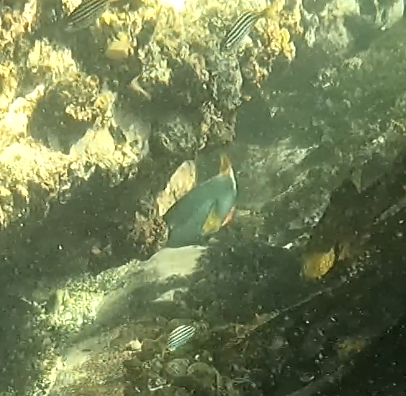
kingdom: Animalia
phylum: Chordata
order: Perciformes
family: Labridae
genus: Notolabrus
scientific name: Notolabrus gymnogenis
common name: Crimson banded wrasse
